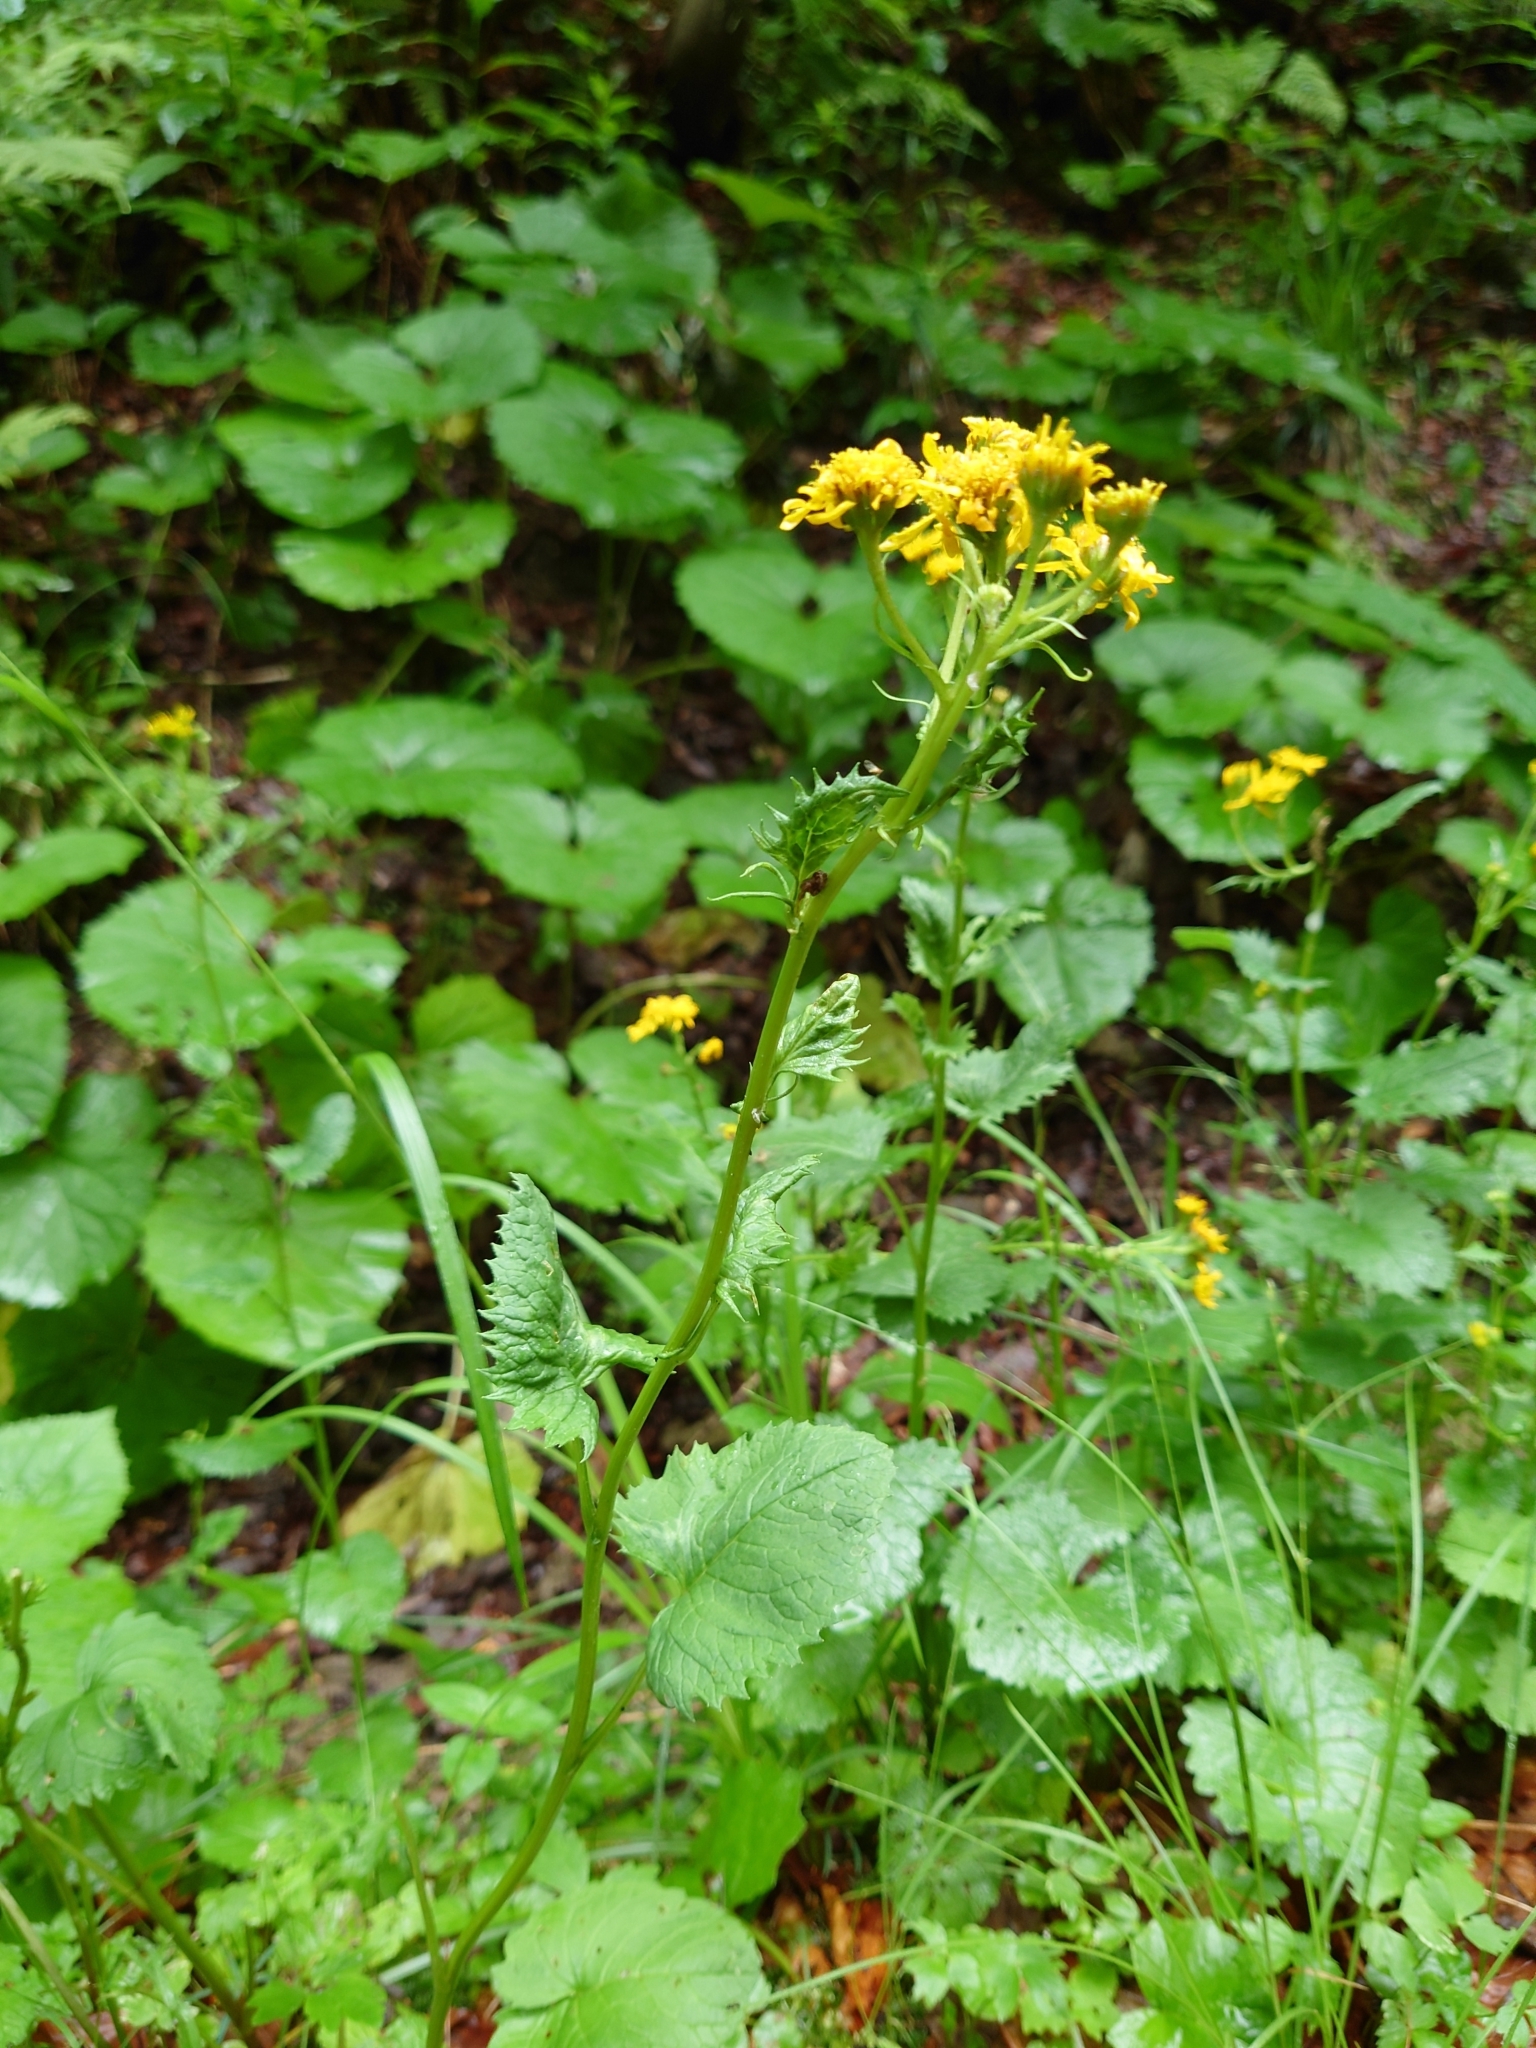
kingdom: Plantae
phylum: Tracheophyta
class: Magnoliopsida
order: Asterales
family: Asteraceae
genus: Jacobaea
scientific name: Jacobaea subalpina
